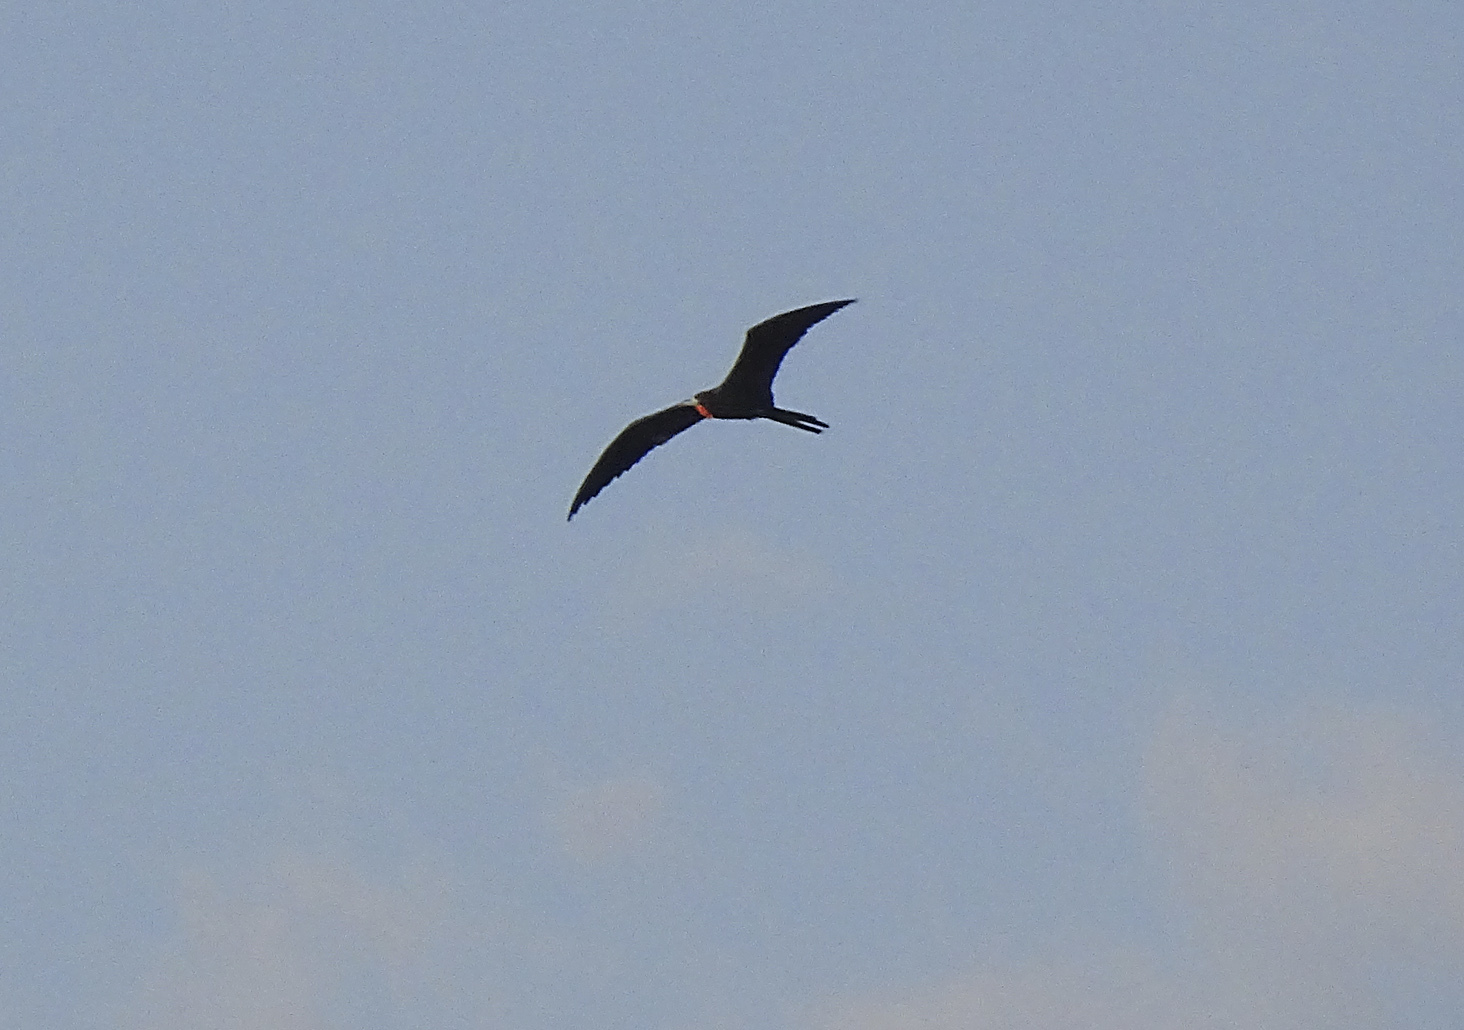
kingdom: Animalia
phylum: Chordata
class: Aves
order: Suliformes
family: Fregatidae
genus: Fregata
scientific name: Fregata magnificens
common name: Magnificent frigatebird
